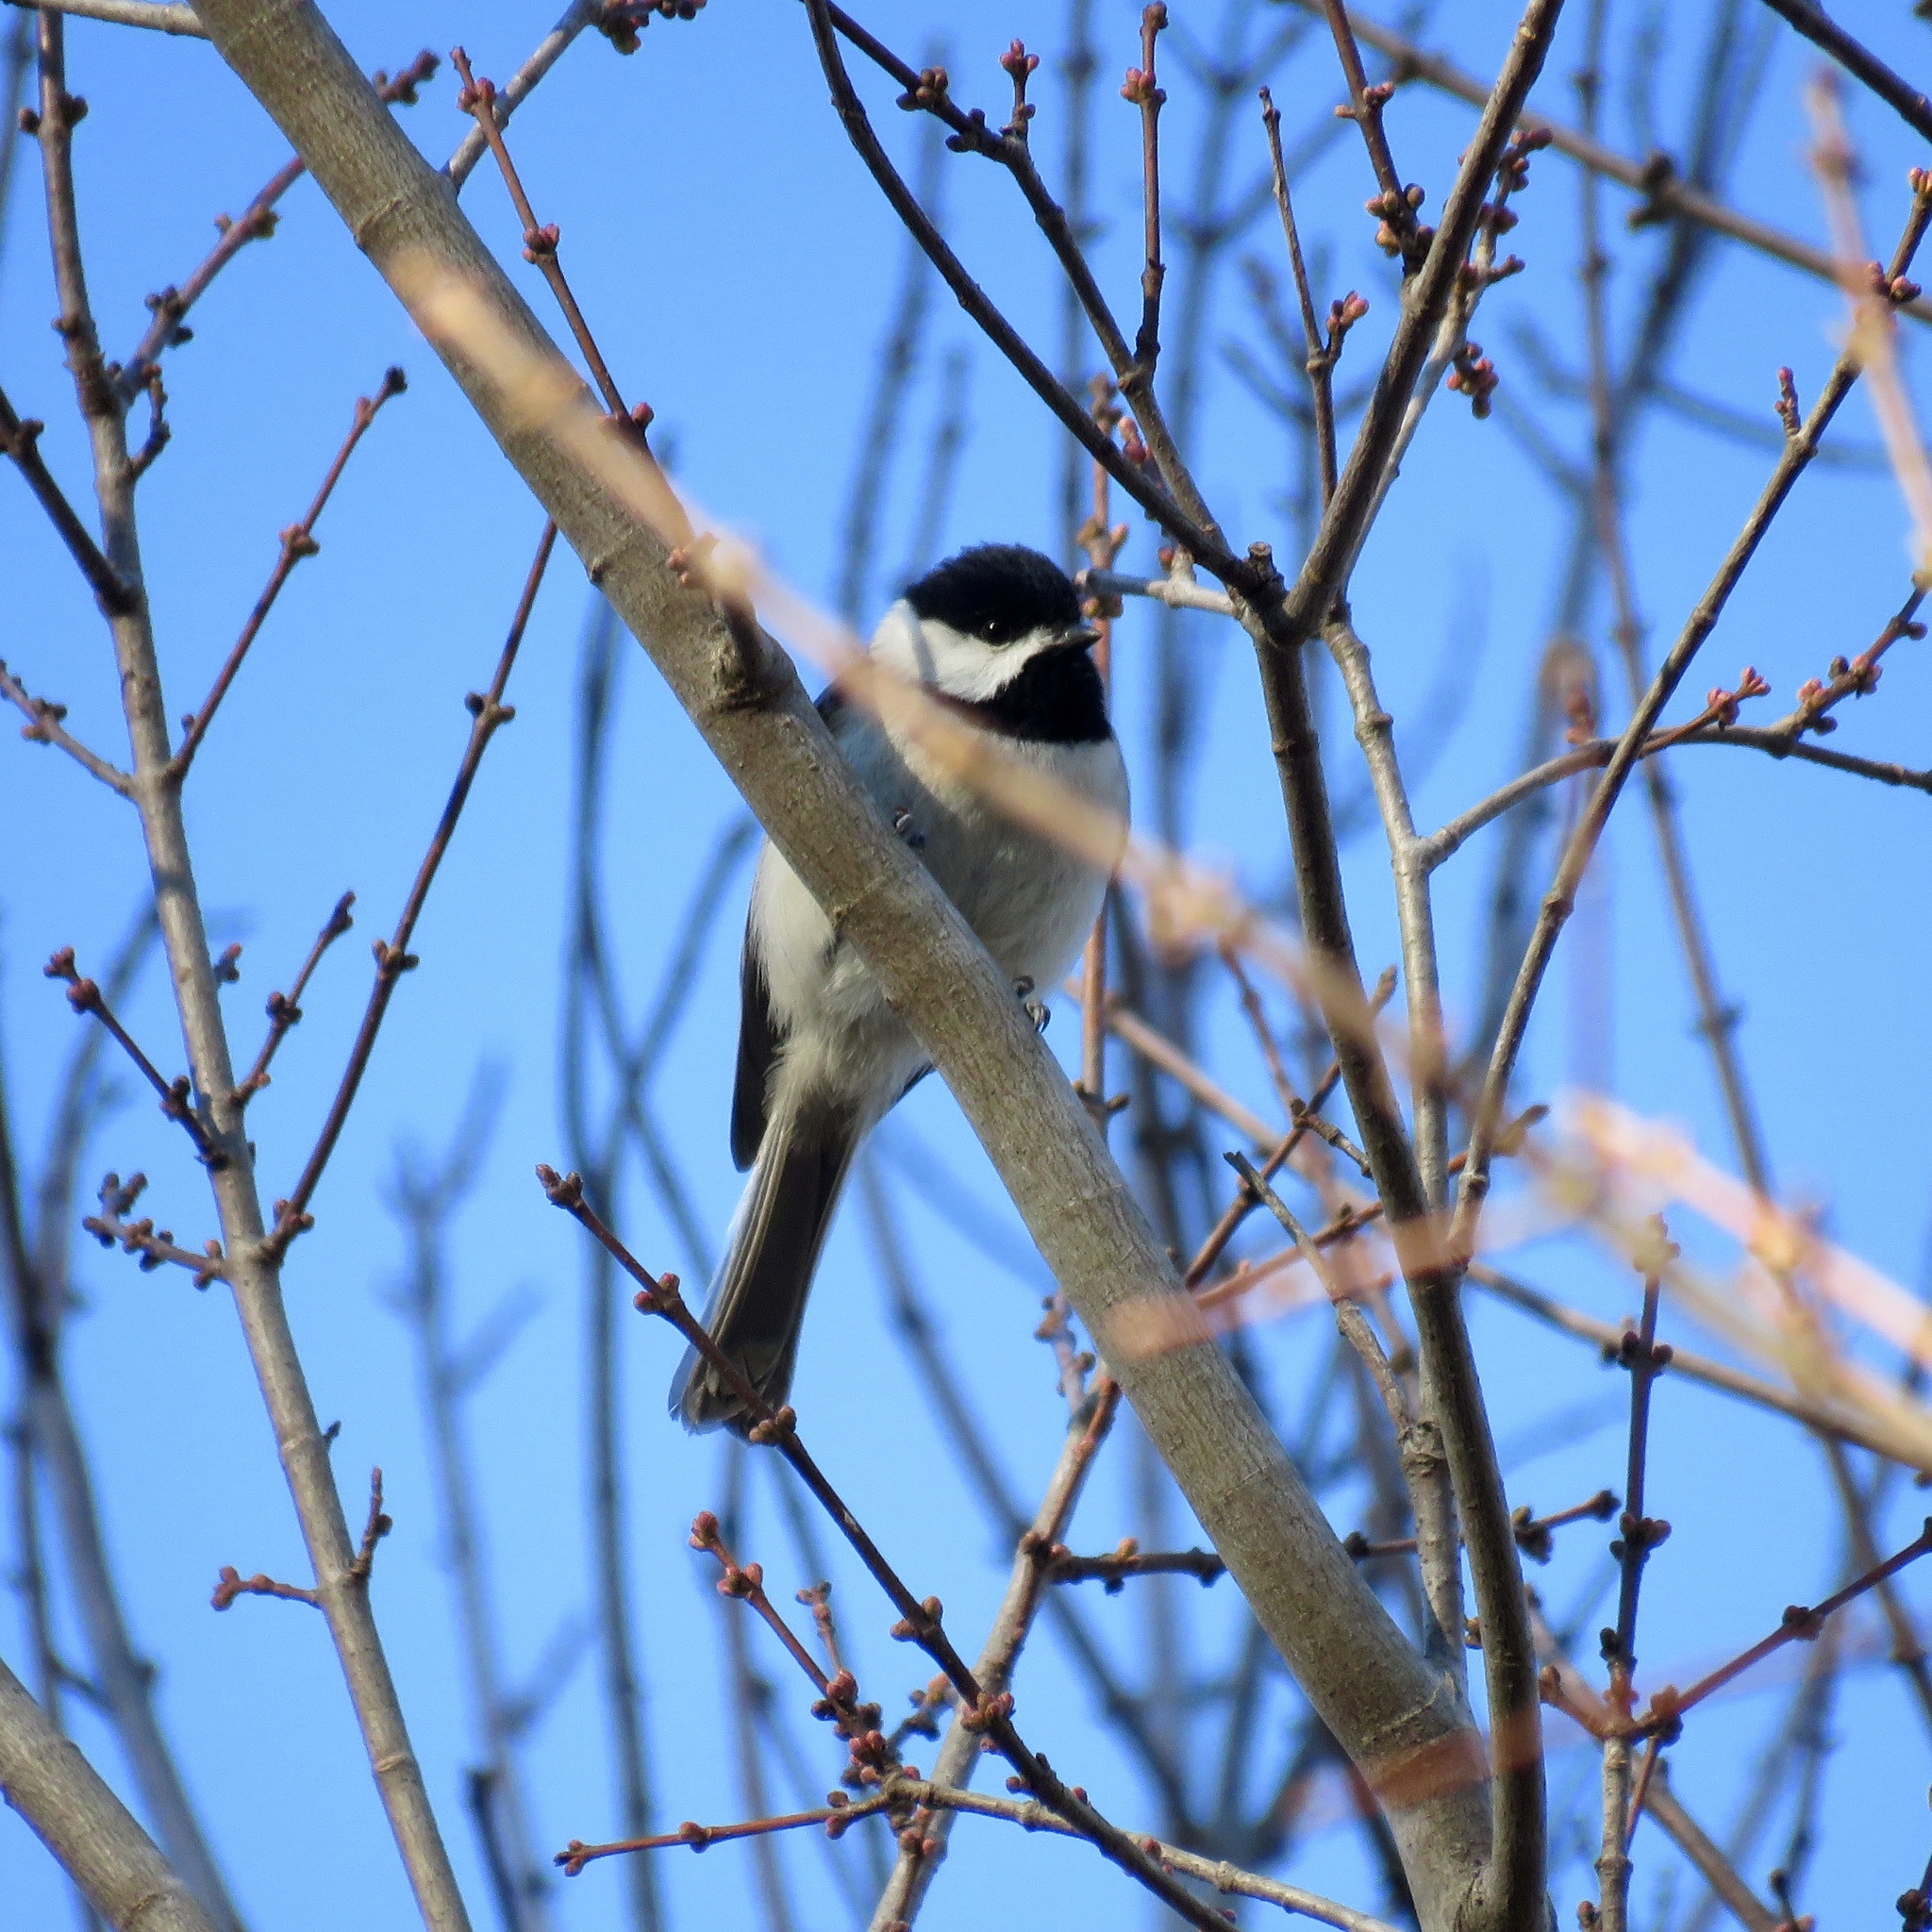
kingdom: Animalia
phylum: Chordata
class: Aves
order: Passeriformes
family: Paridae
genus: Poecile
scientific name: Poecile carolinensis
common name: Carolina chickadee
